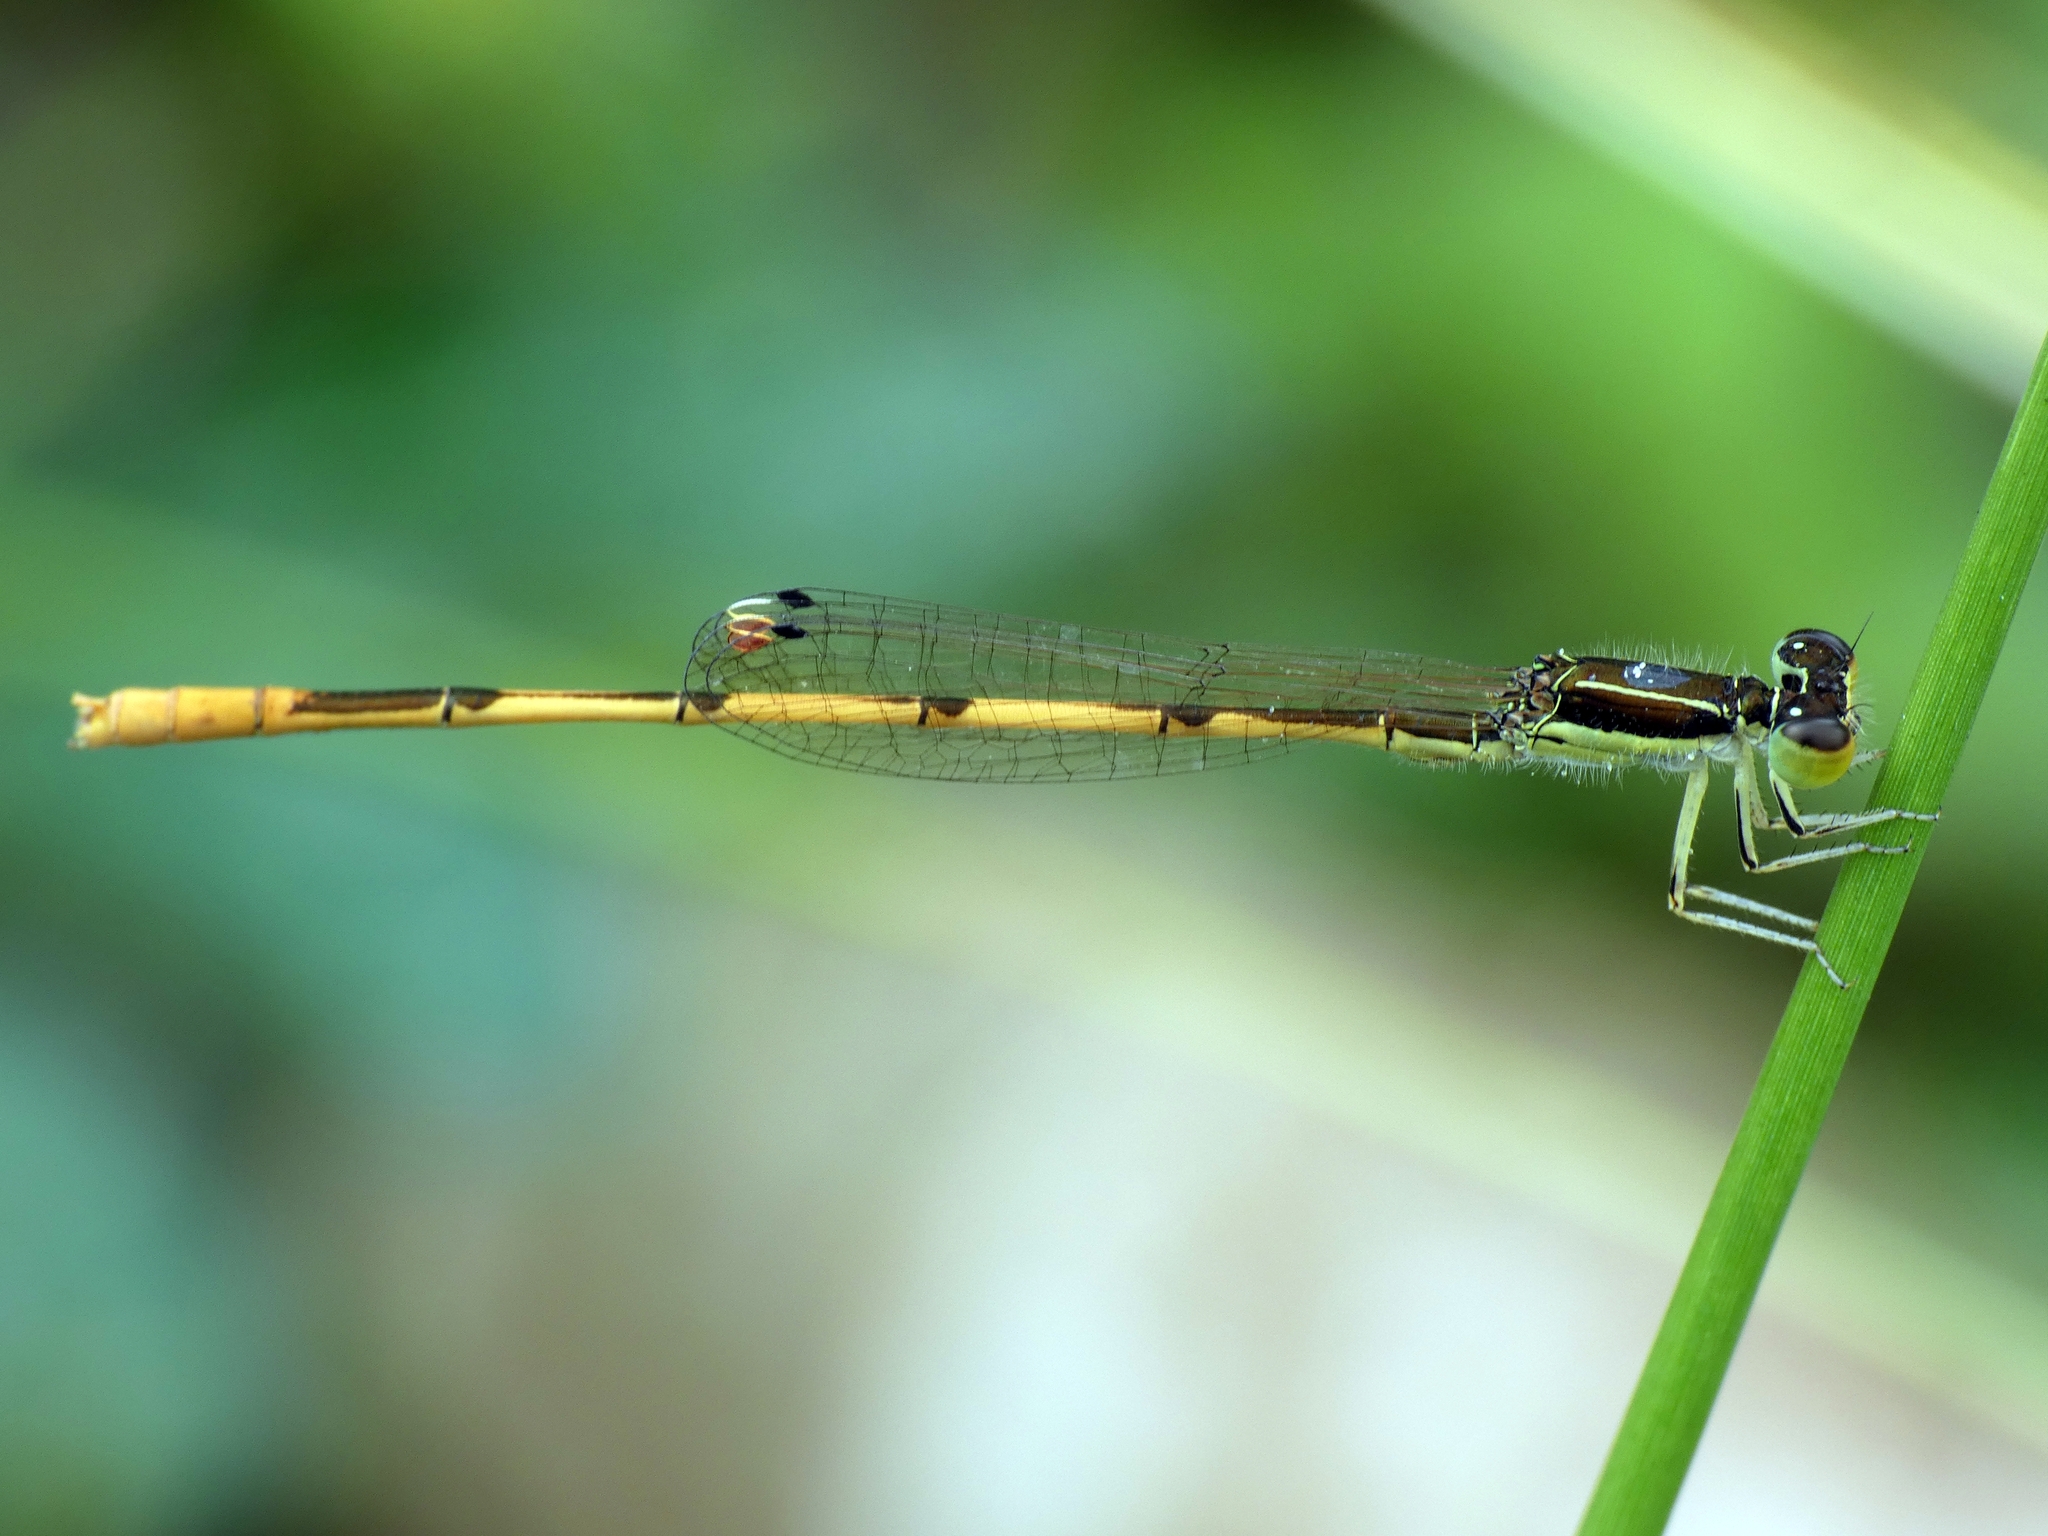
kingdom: Animalia
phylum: Arthropoda
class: Insecta
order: Odonata
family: Coenagrionidae
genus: Ischnura
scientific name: Ischnura hastata
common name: Citrine forktail
